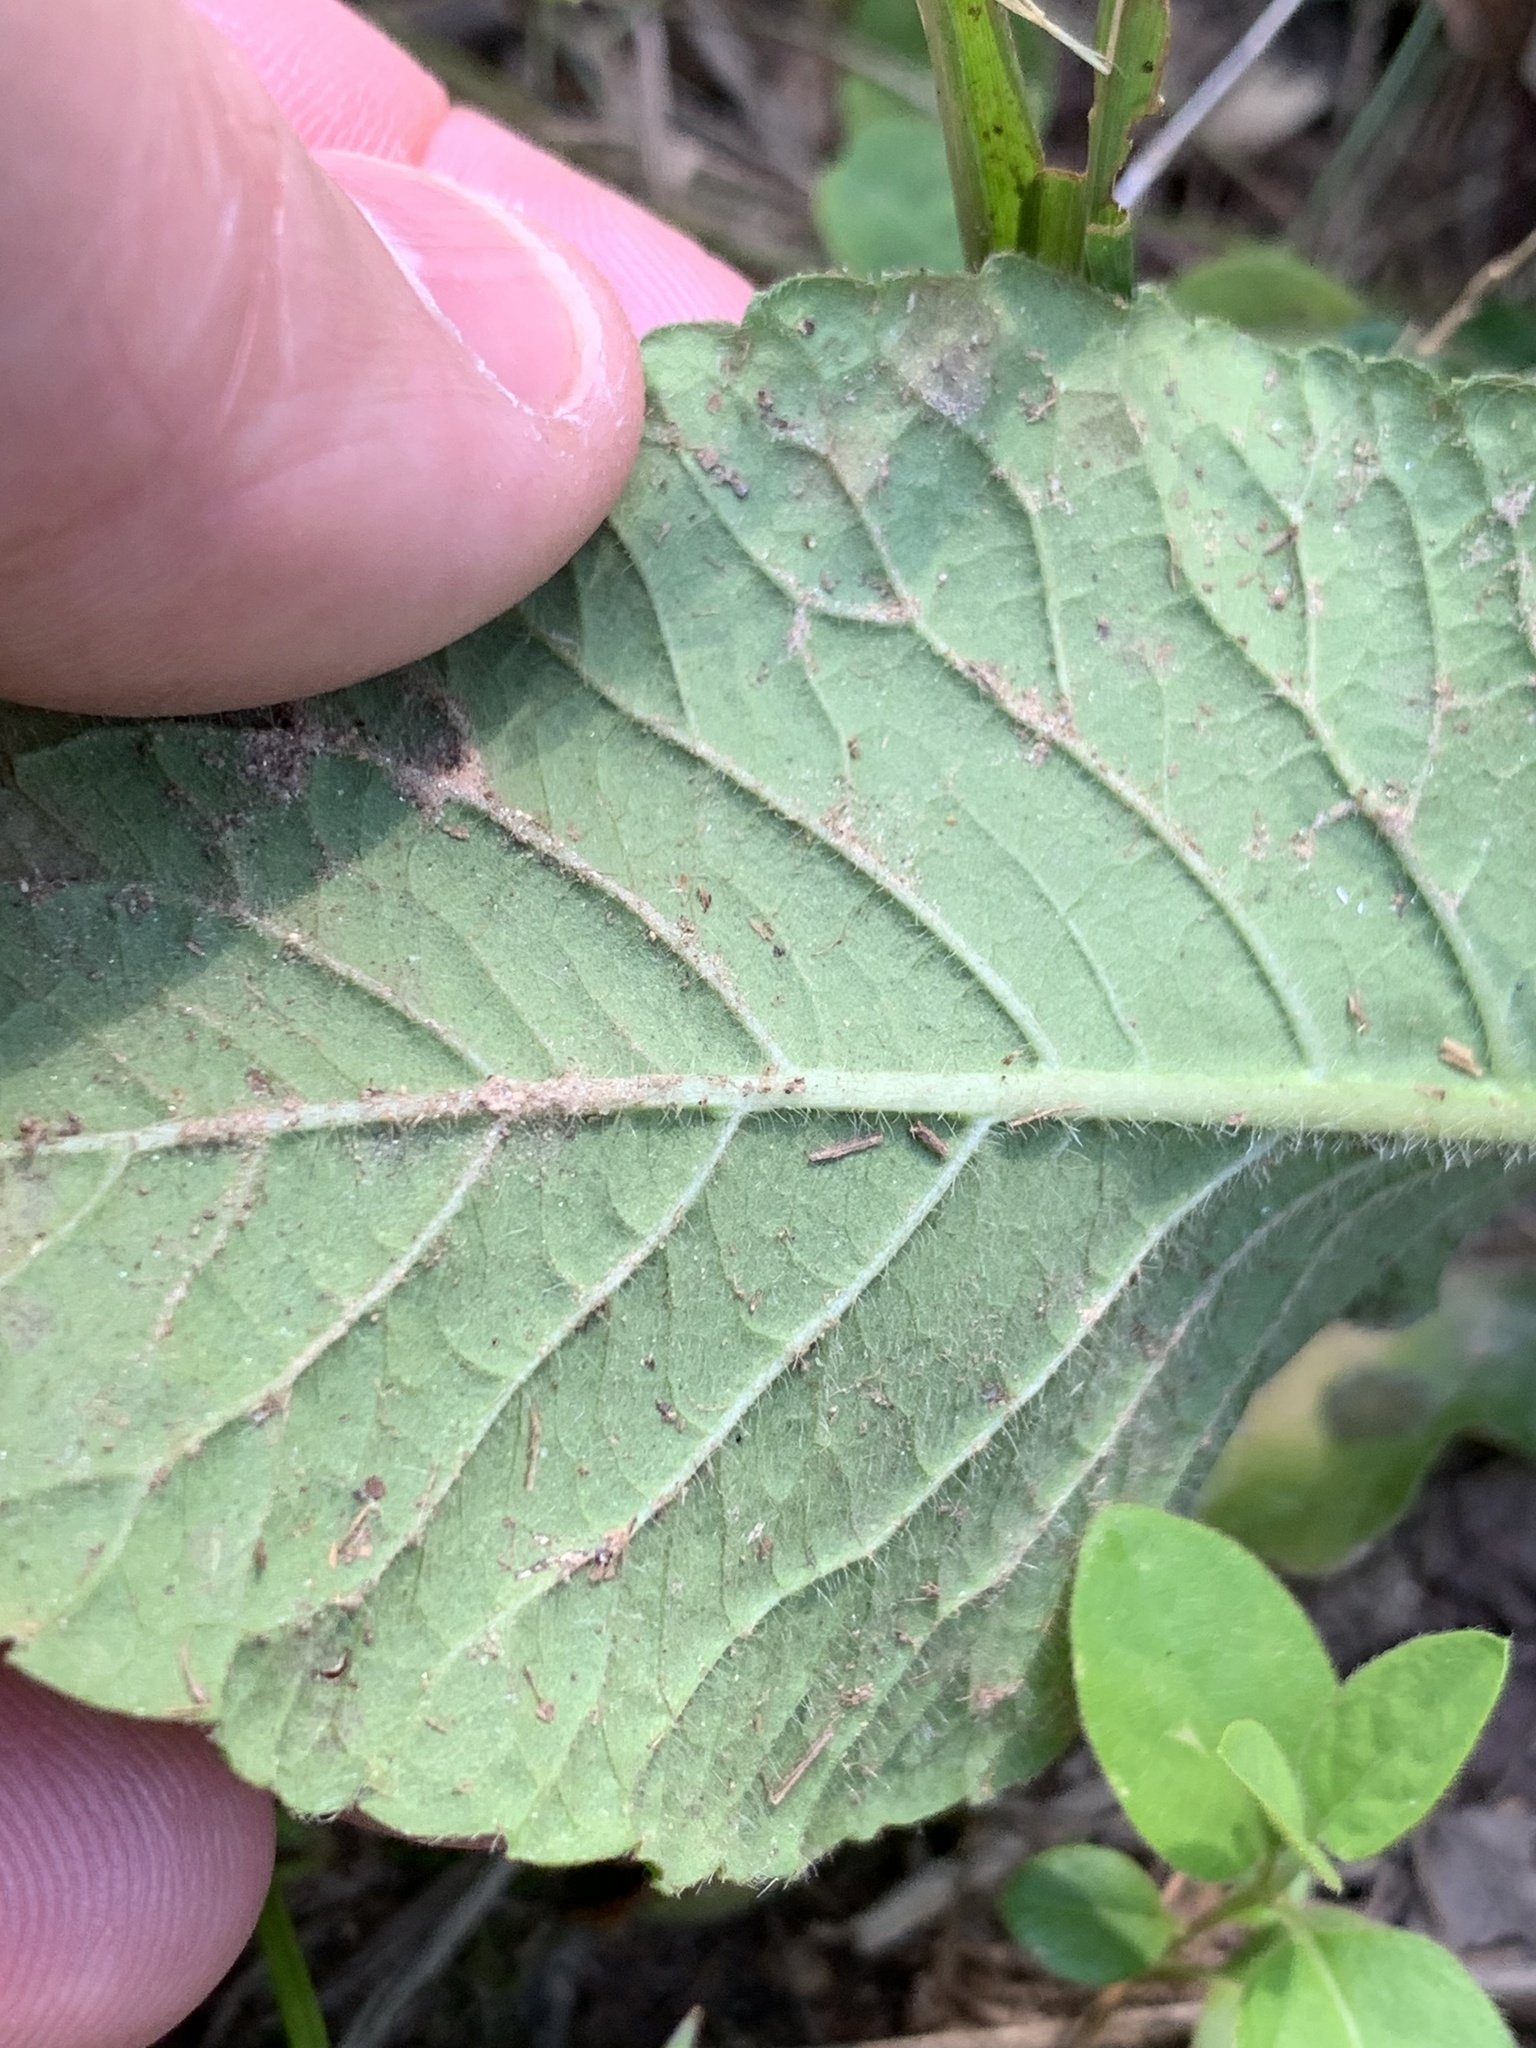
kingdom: Plantae
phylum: Tracheophyta
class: Magnoliopsida
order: Asterales
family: Asteraceae
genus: Elephantopus
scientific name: Elephantopus tomentosus
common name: Tobacco-weed
